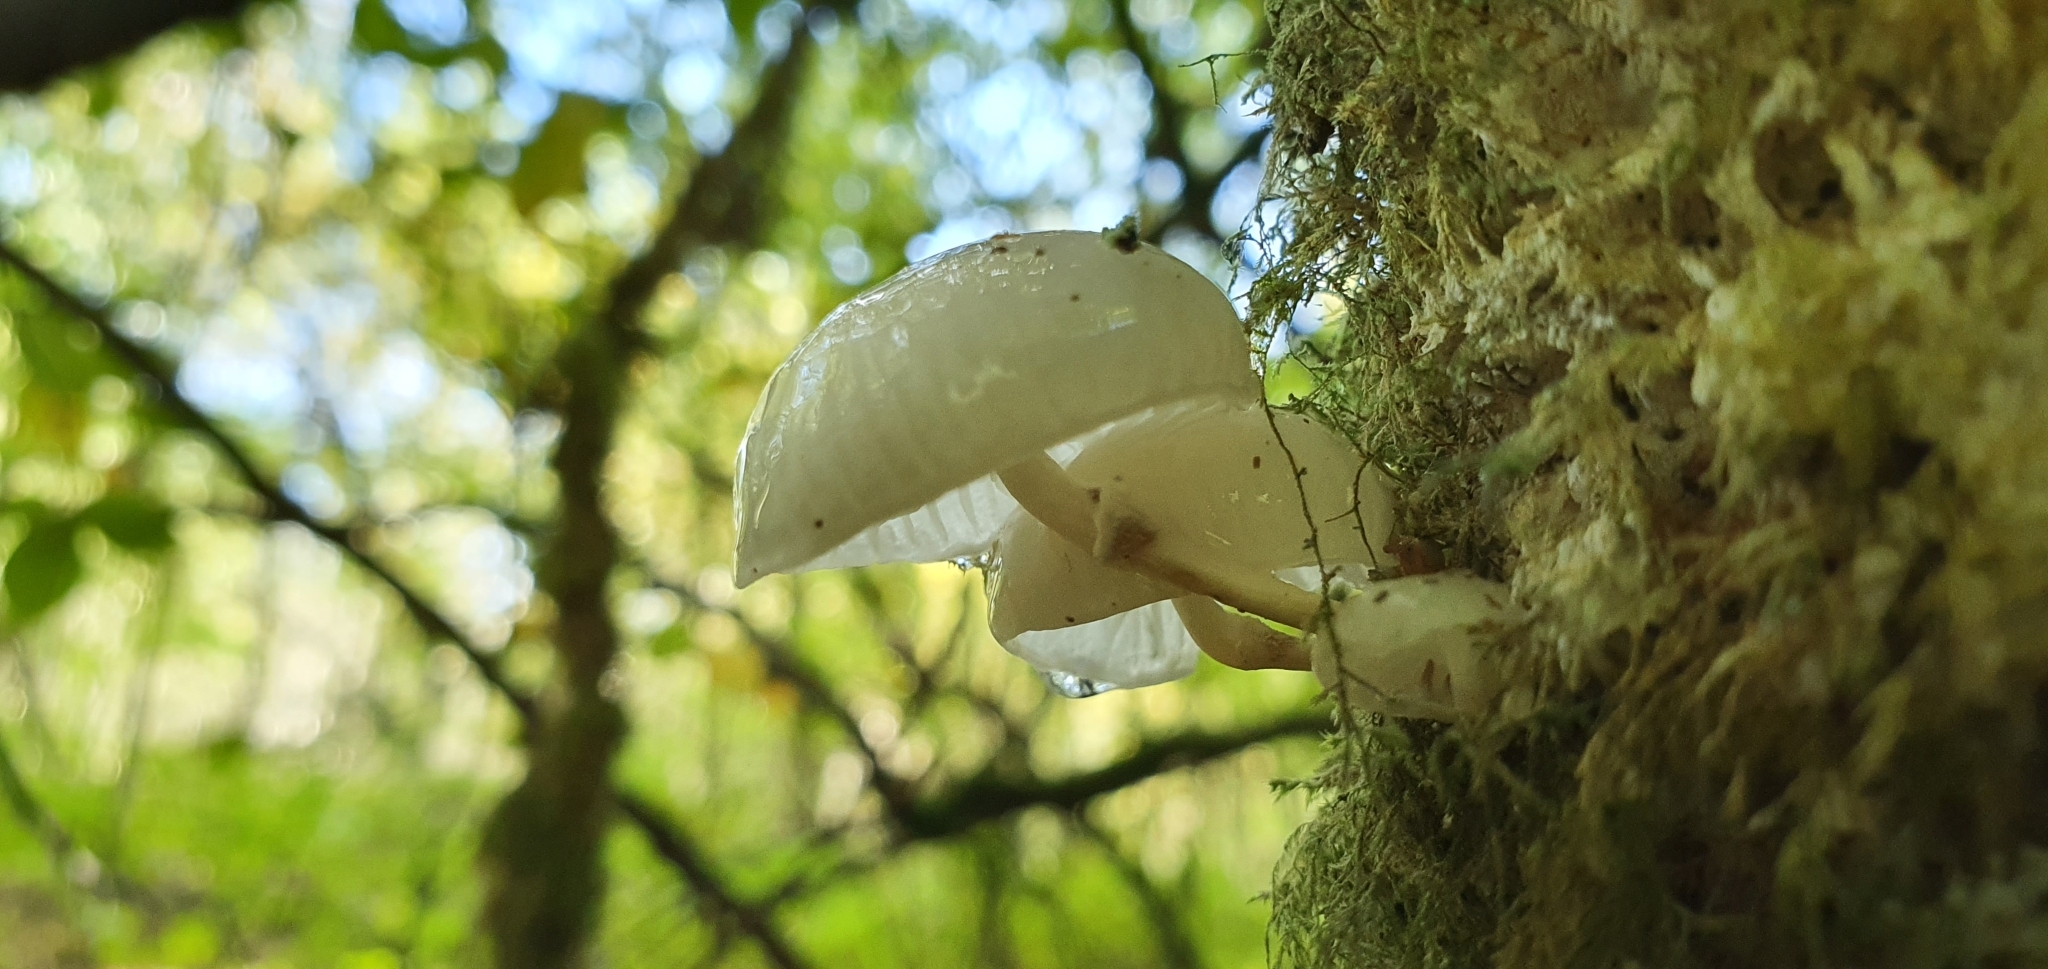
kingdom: Fungi
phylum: Basidiomycota
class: Agaricomycetes
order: Agaricales
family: Physalacriaceae
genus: Mucidula
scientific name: Mucidula mucida
